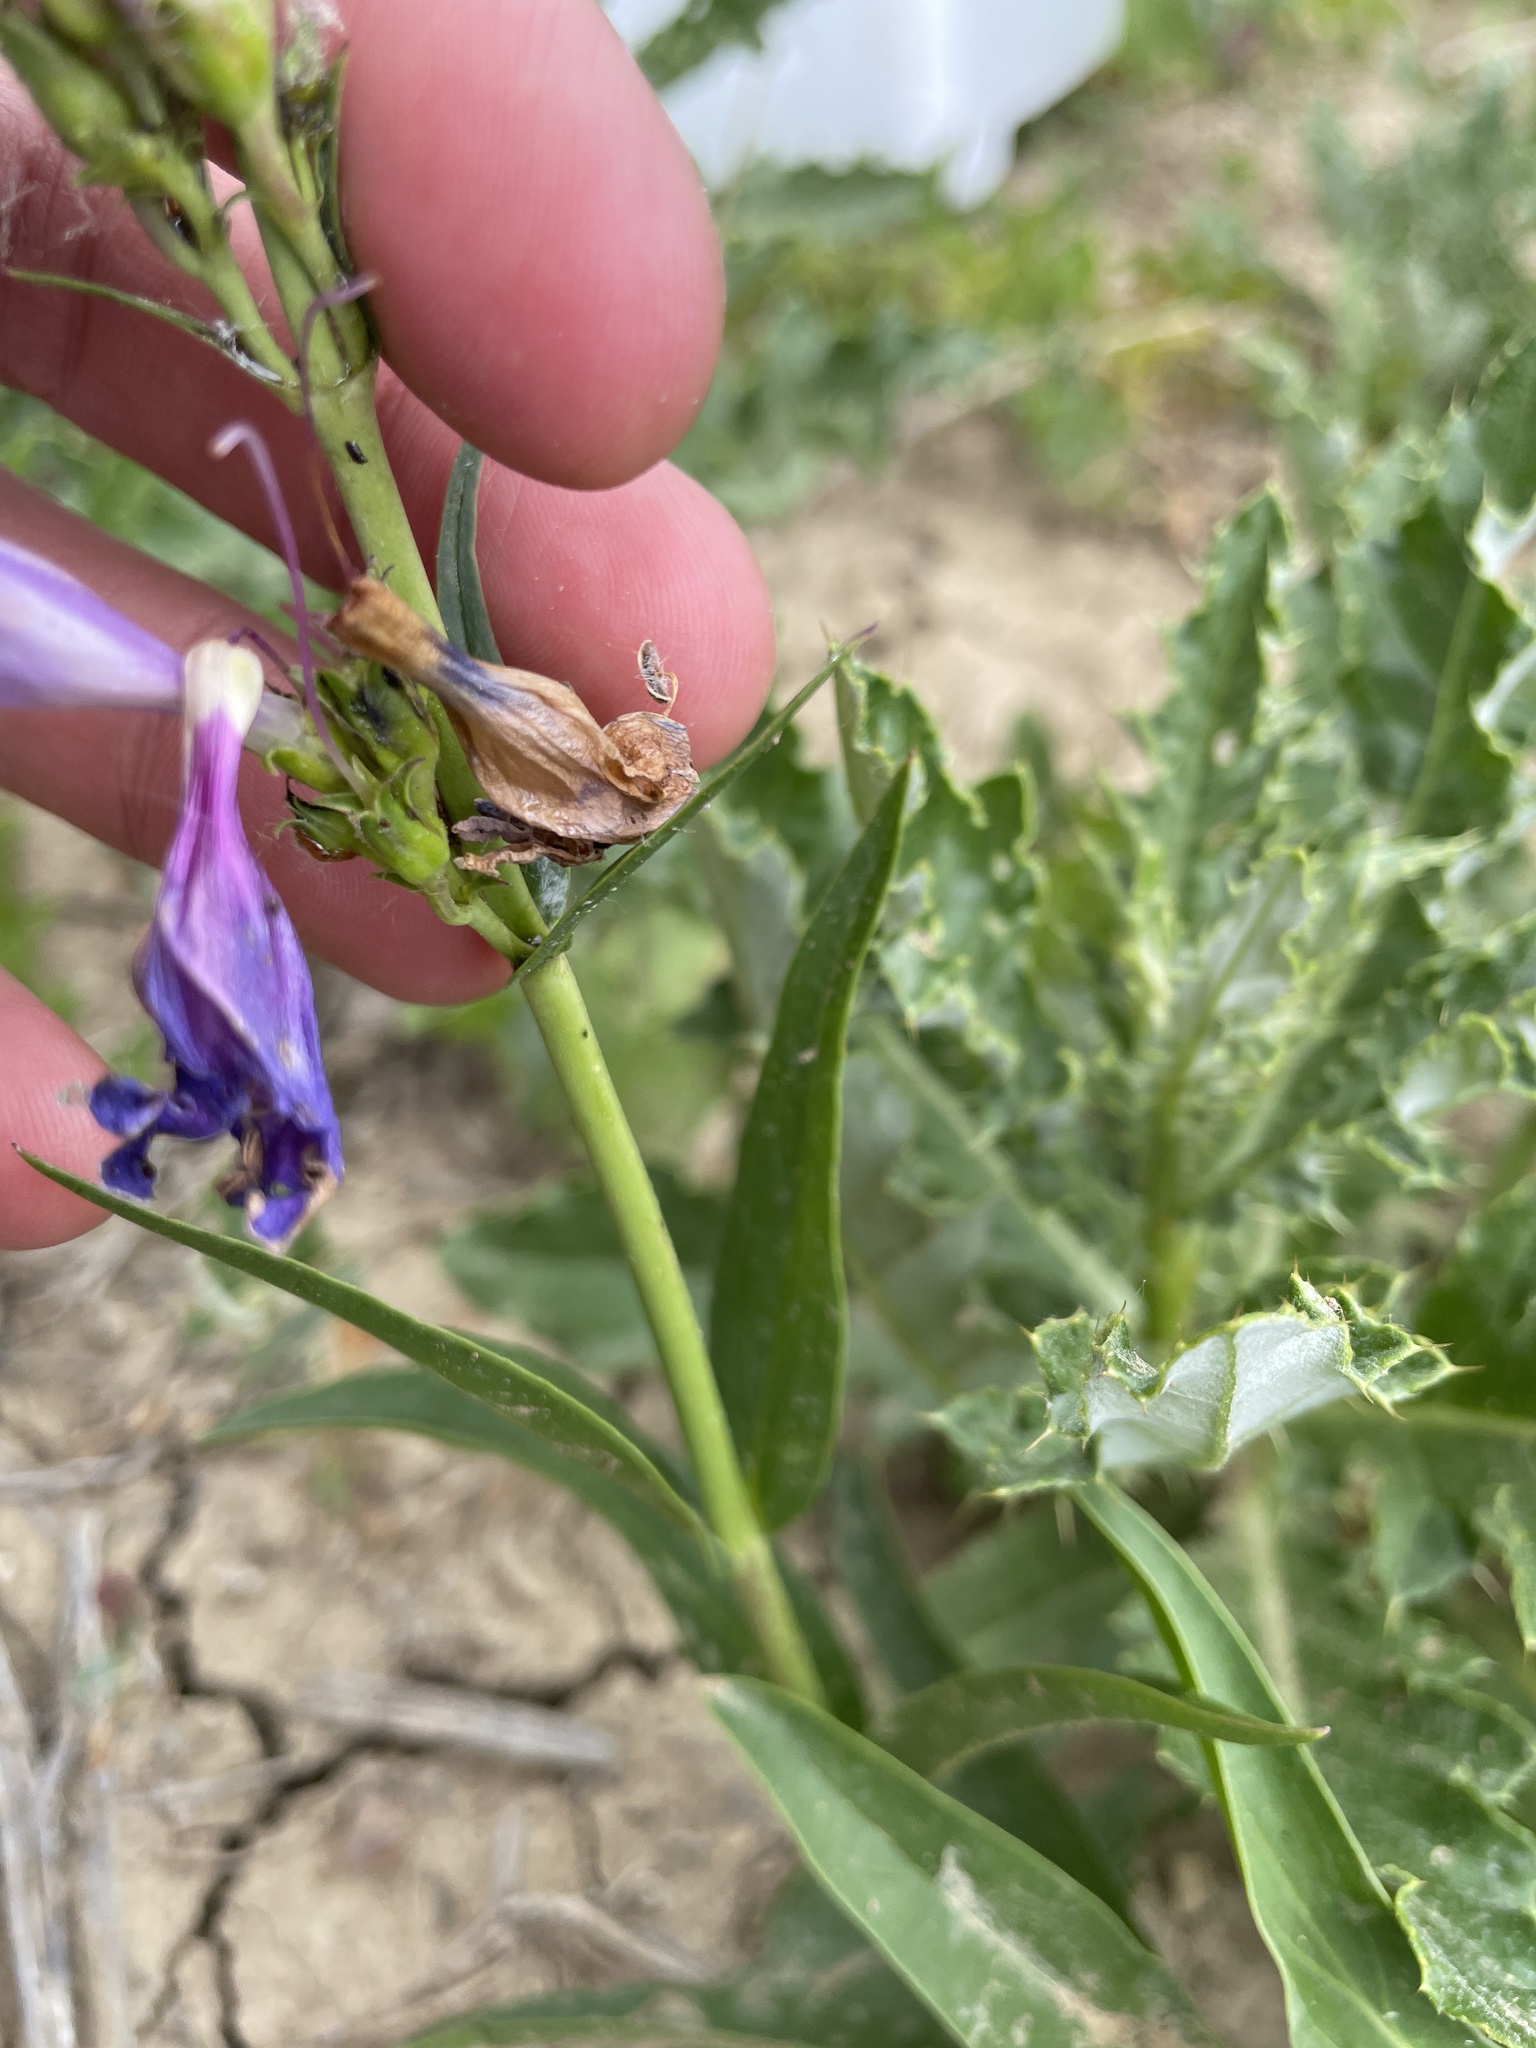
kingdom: Plantae
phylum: Tracheophyta
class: Magnoliopsida
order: Lamiales
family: Plantaginaceae
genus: Penstemon
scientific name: Penstemon strictus
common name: Rocky mountain penstemon
